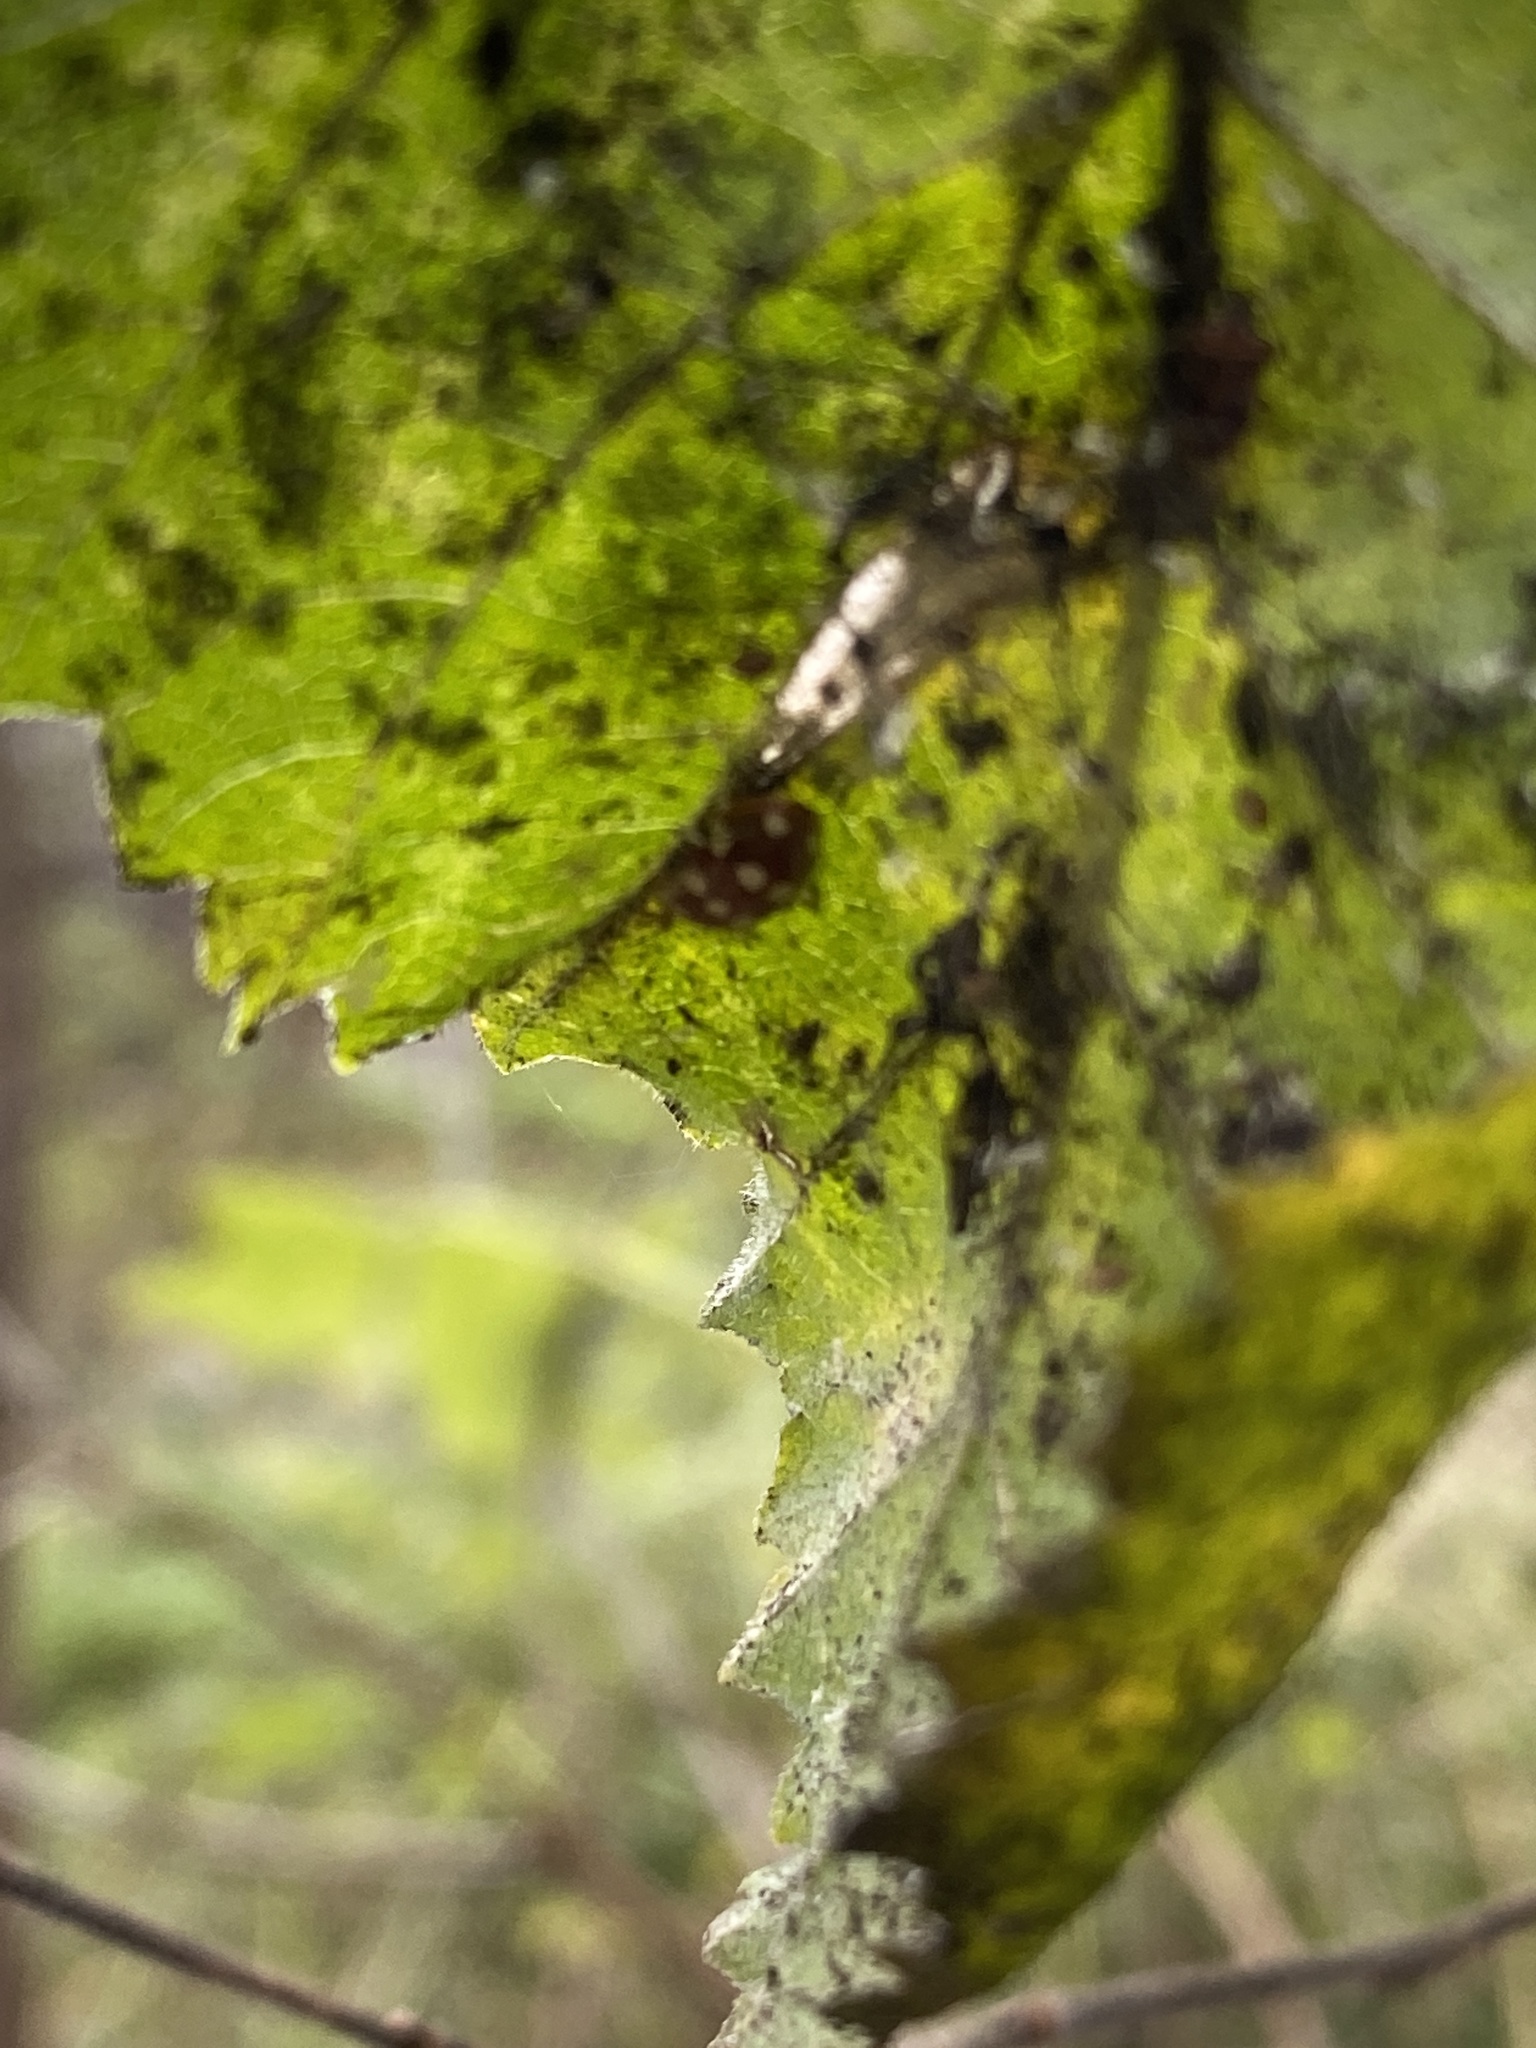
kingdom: Animalia
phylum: Arthropoda
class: Insecta
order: Coleoptera
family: Coccinellidae
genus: Calvia
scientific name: Calvia quatuordecimguttata
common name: Cream-spot ladybird
